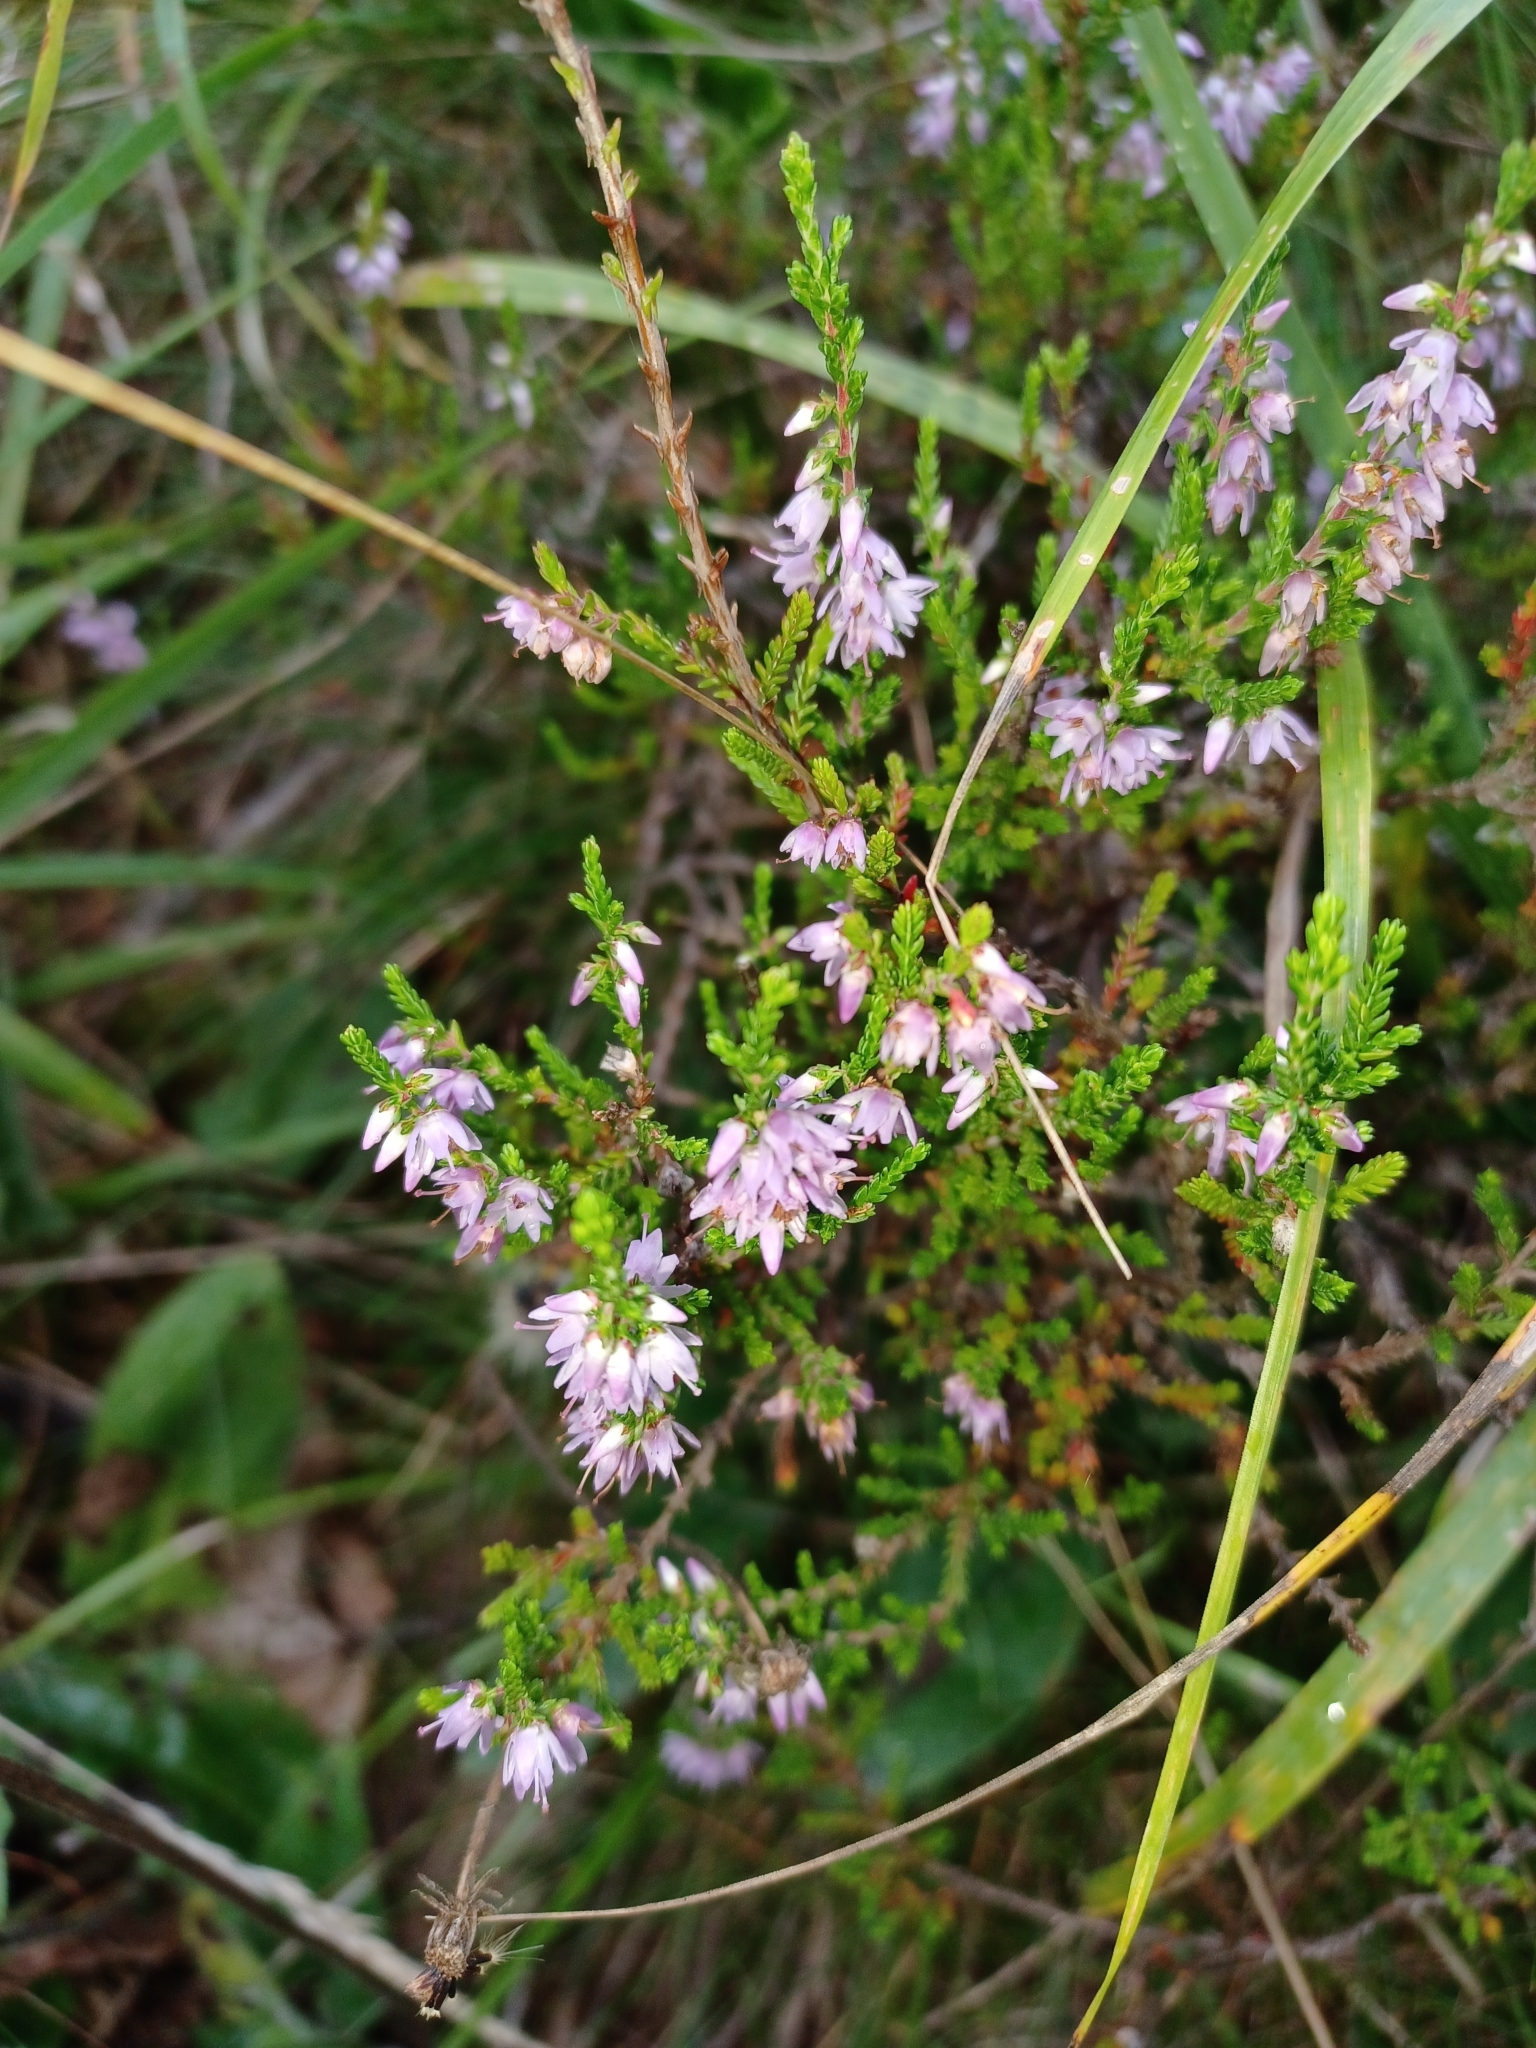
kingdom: Plantae
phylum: Tracheophyta
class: Magnoliopsida
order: Ericales
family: Ericaceae
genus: Calluna
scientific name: Calluna vulgaris
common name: Heather
